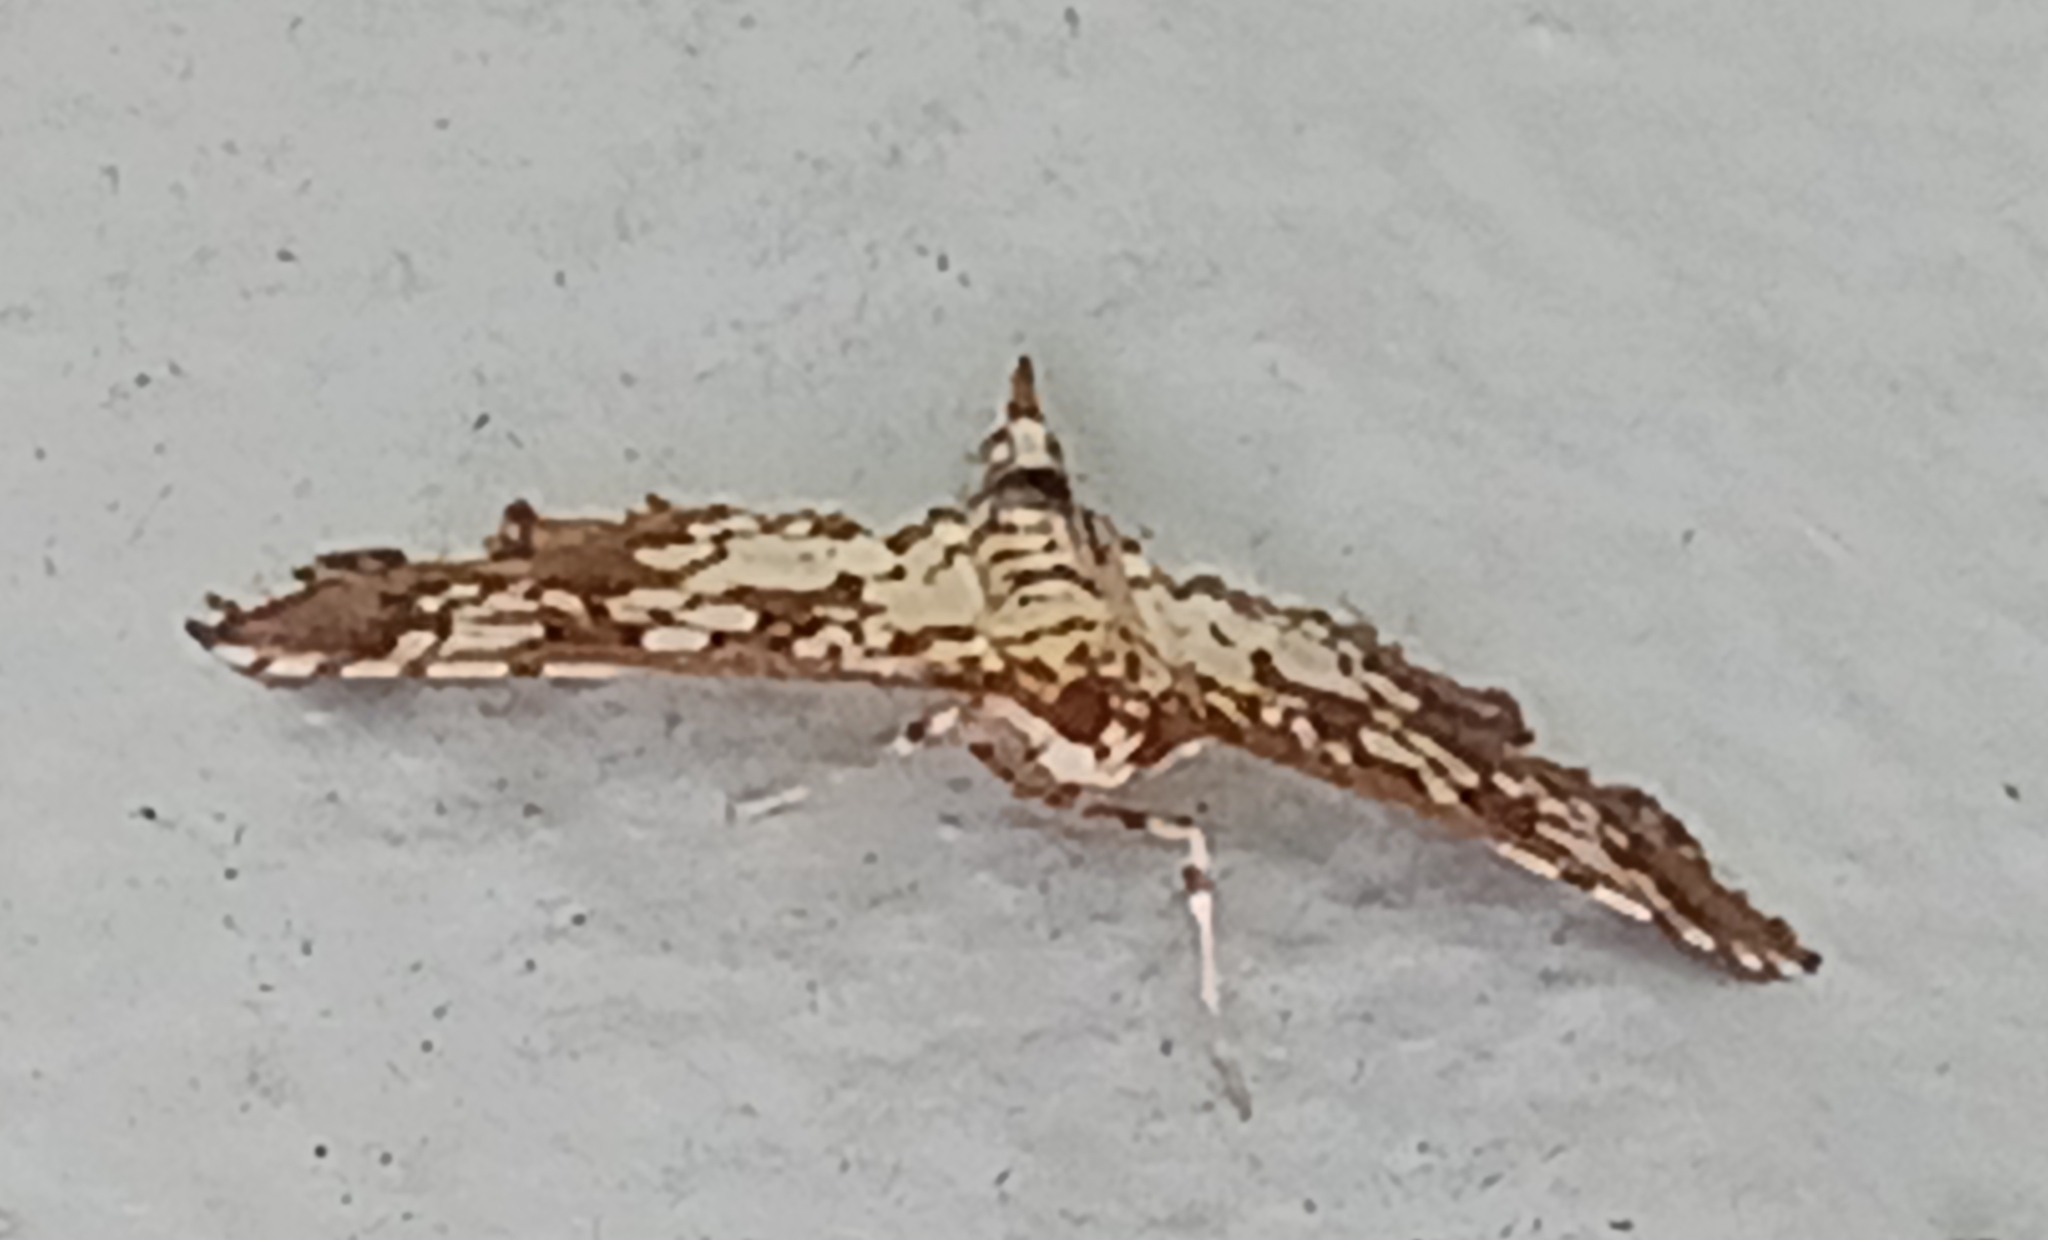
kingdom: Animalia
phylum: Arthropoda
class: Insecta
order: Lepidoptera
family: Crambidae
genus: Samea
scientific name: Samea ecclesialis
